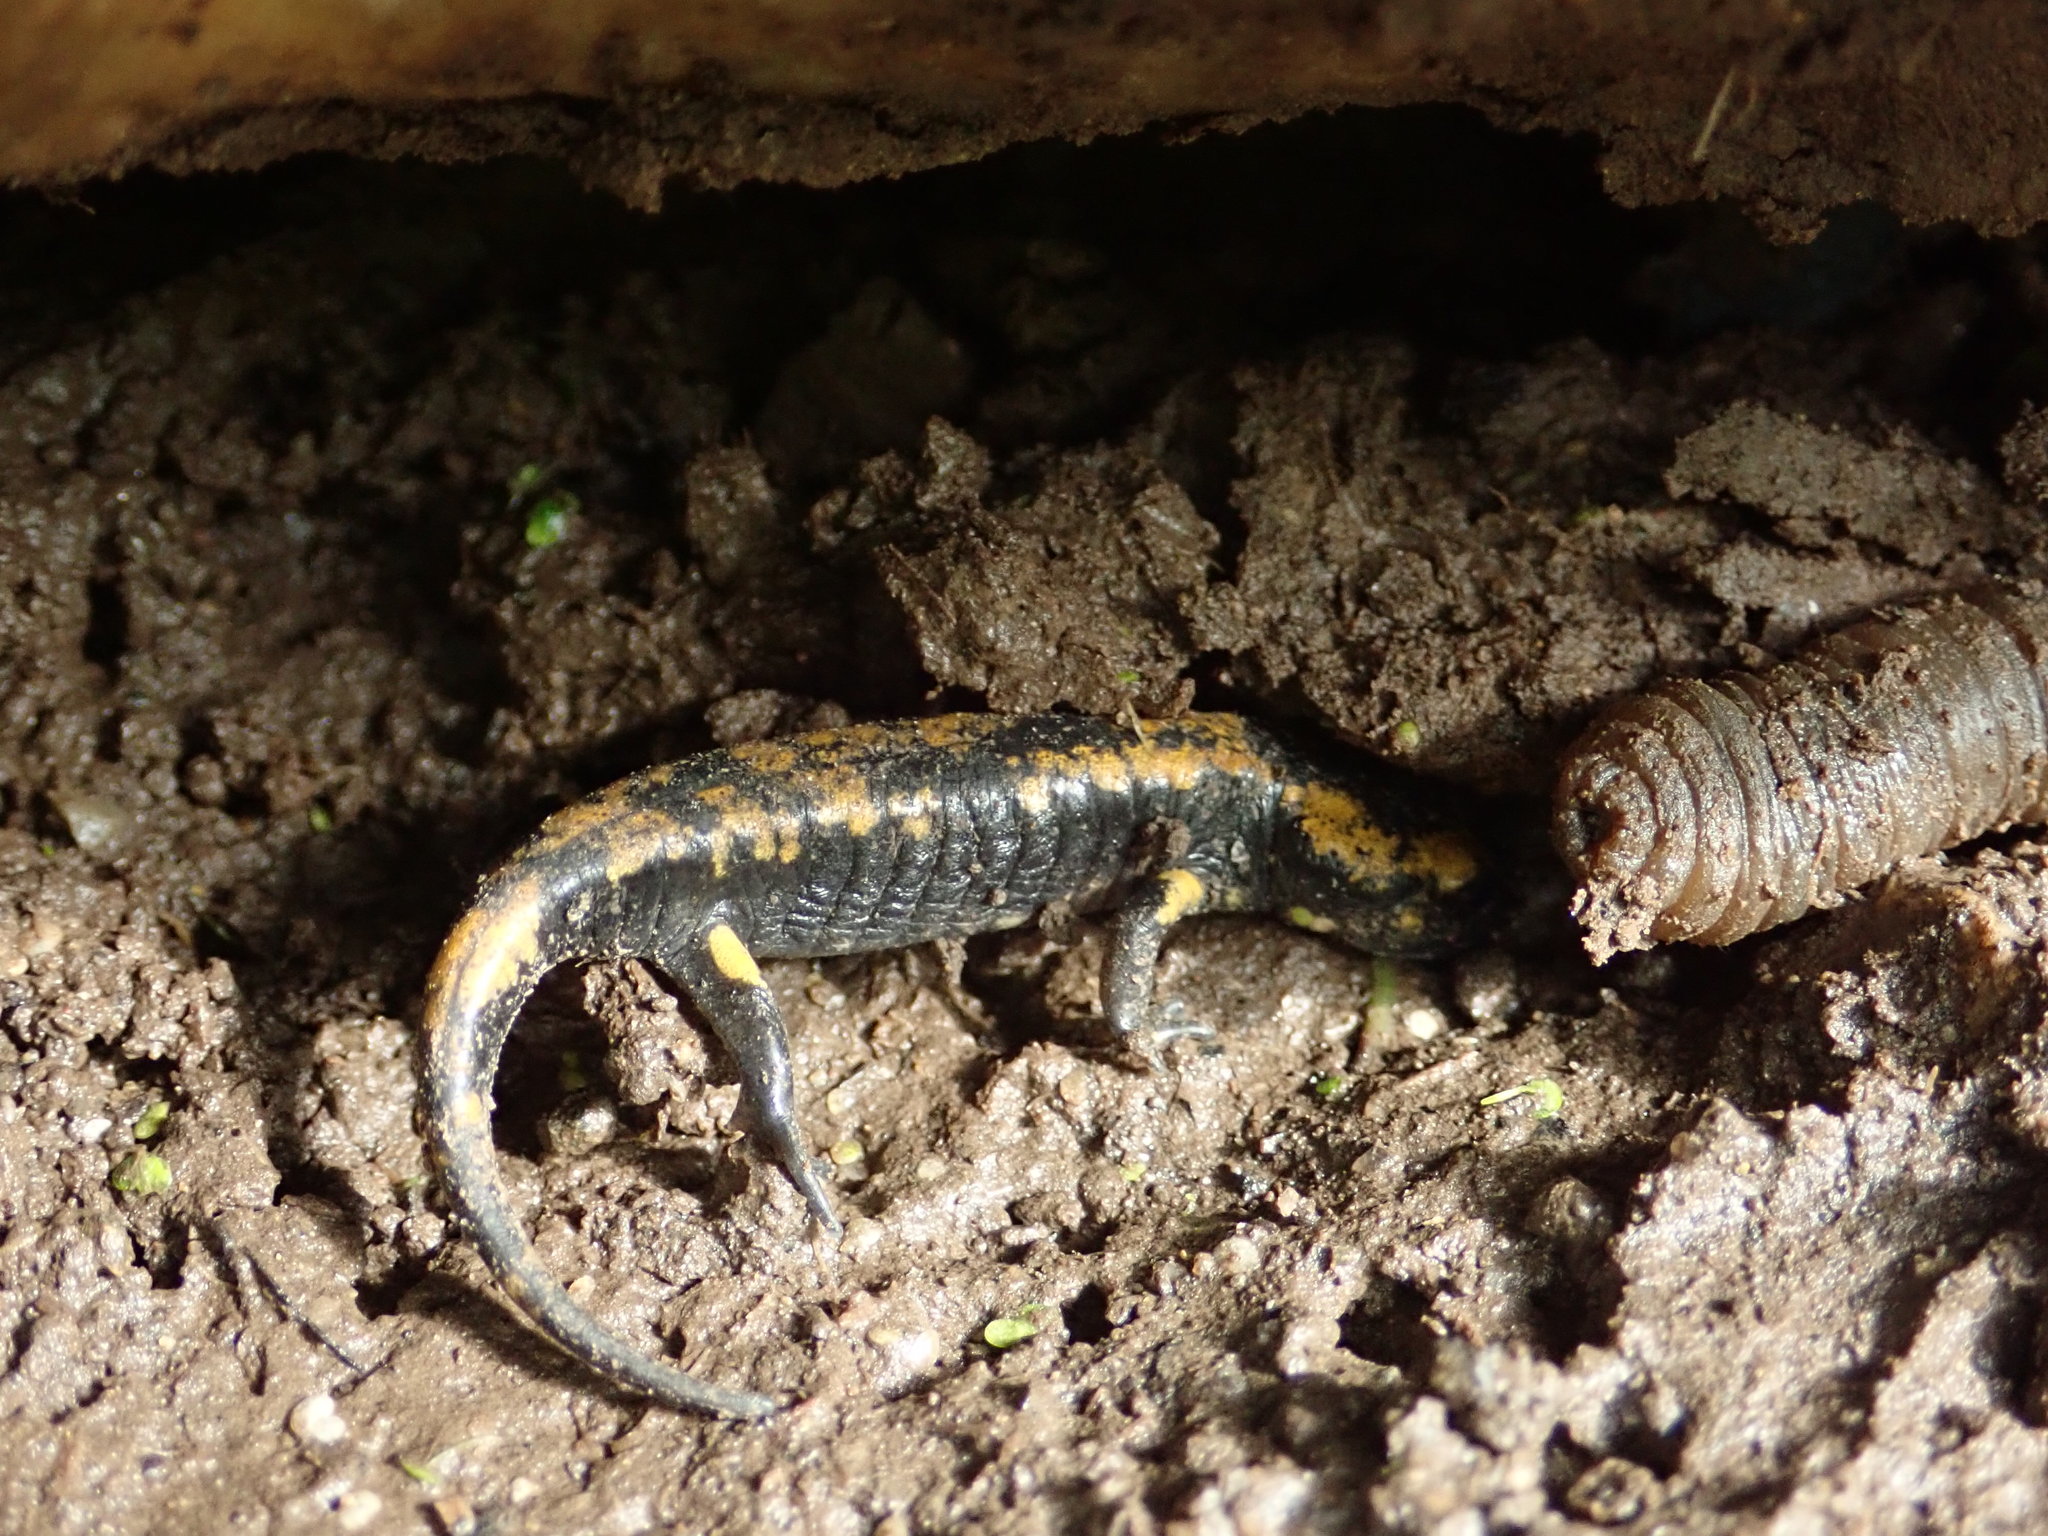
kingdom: Animalia
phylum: Chordata
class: Amphibia
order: Caudata
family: Salamandridae
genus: Salamandra
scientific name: Salamandra salamandra
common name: Fire salamander
